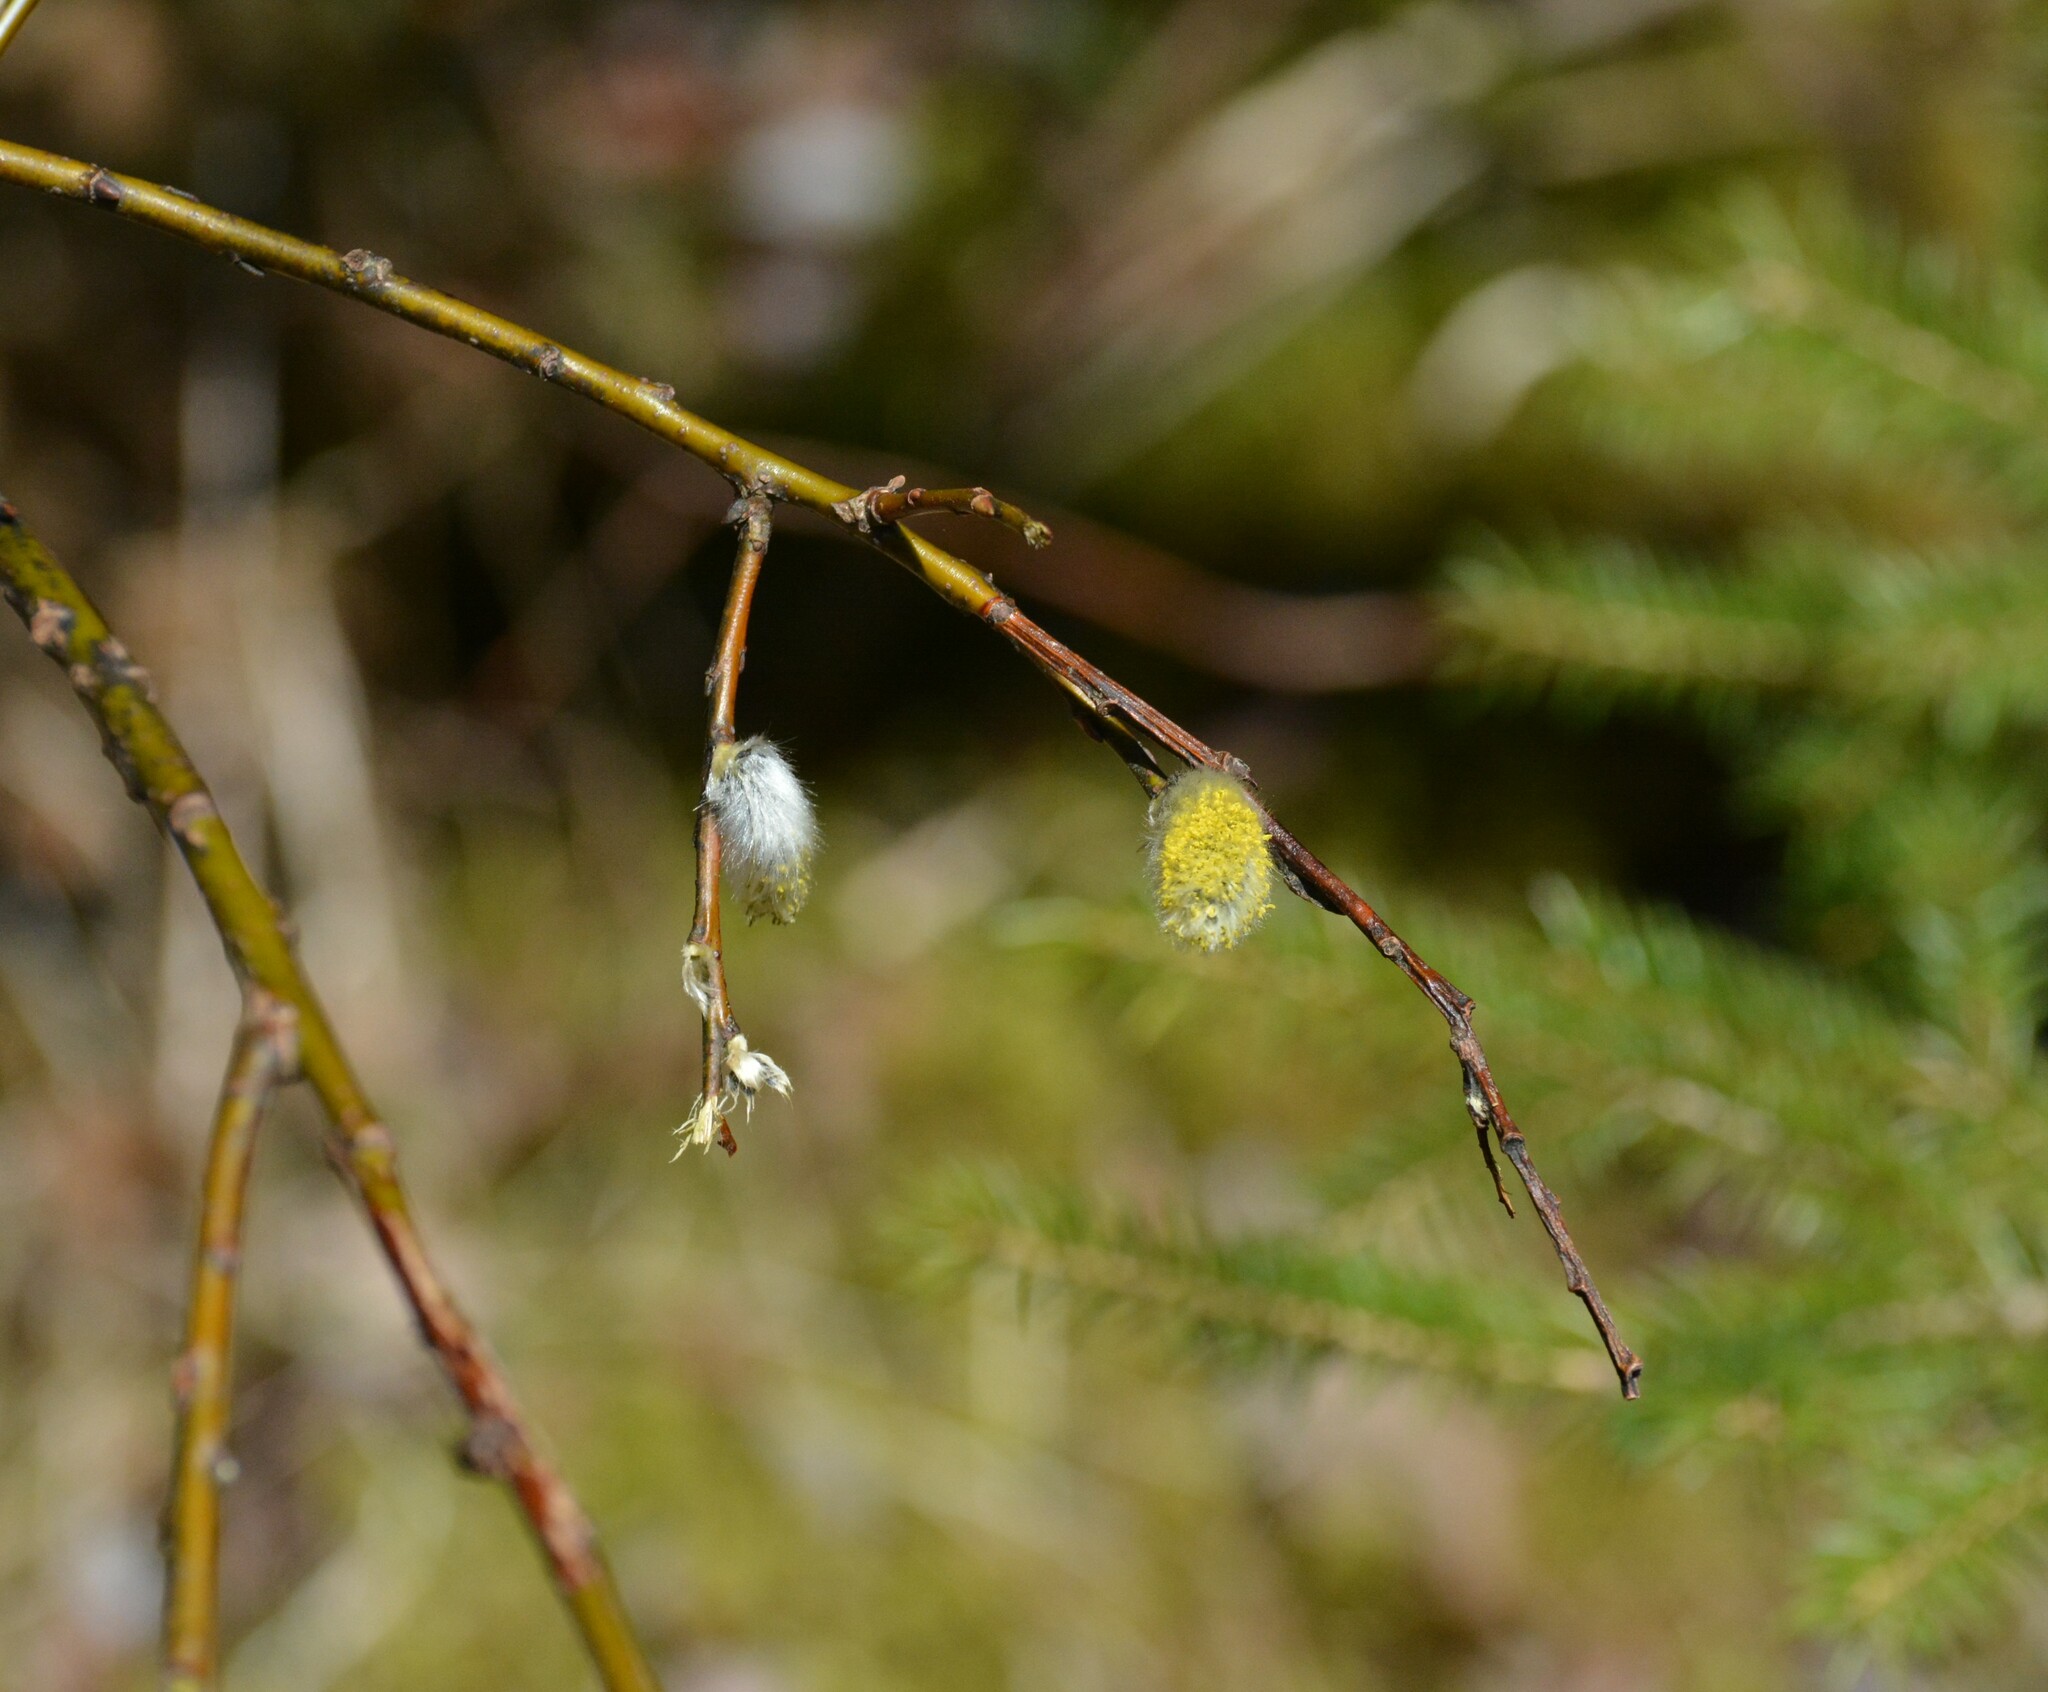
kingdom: Plantae
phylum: Tracheophyta
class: Magnoliopsida
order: Malpighiales
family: Salicaceae
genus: Salix
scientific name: Salix discolor
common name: Glaucous willow
